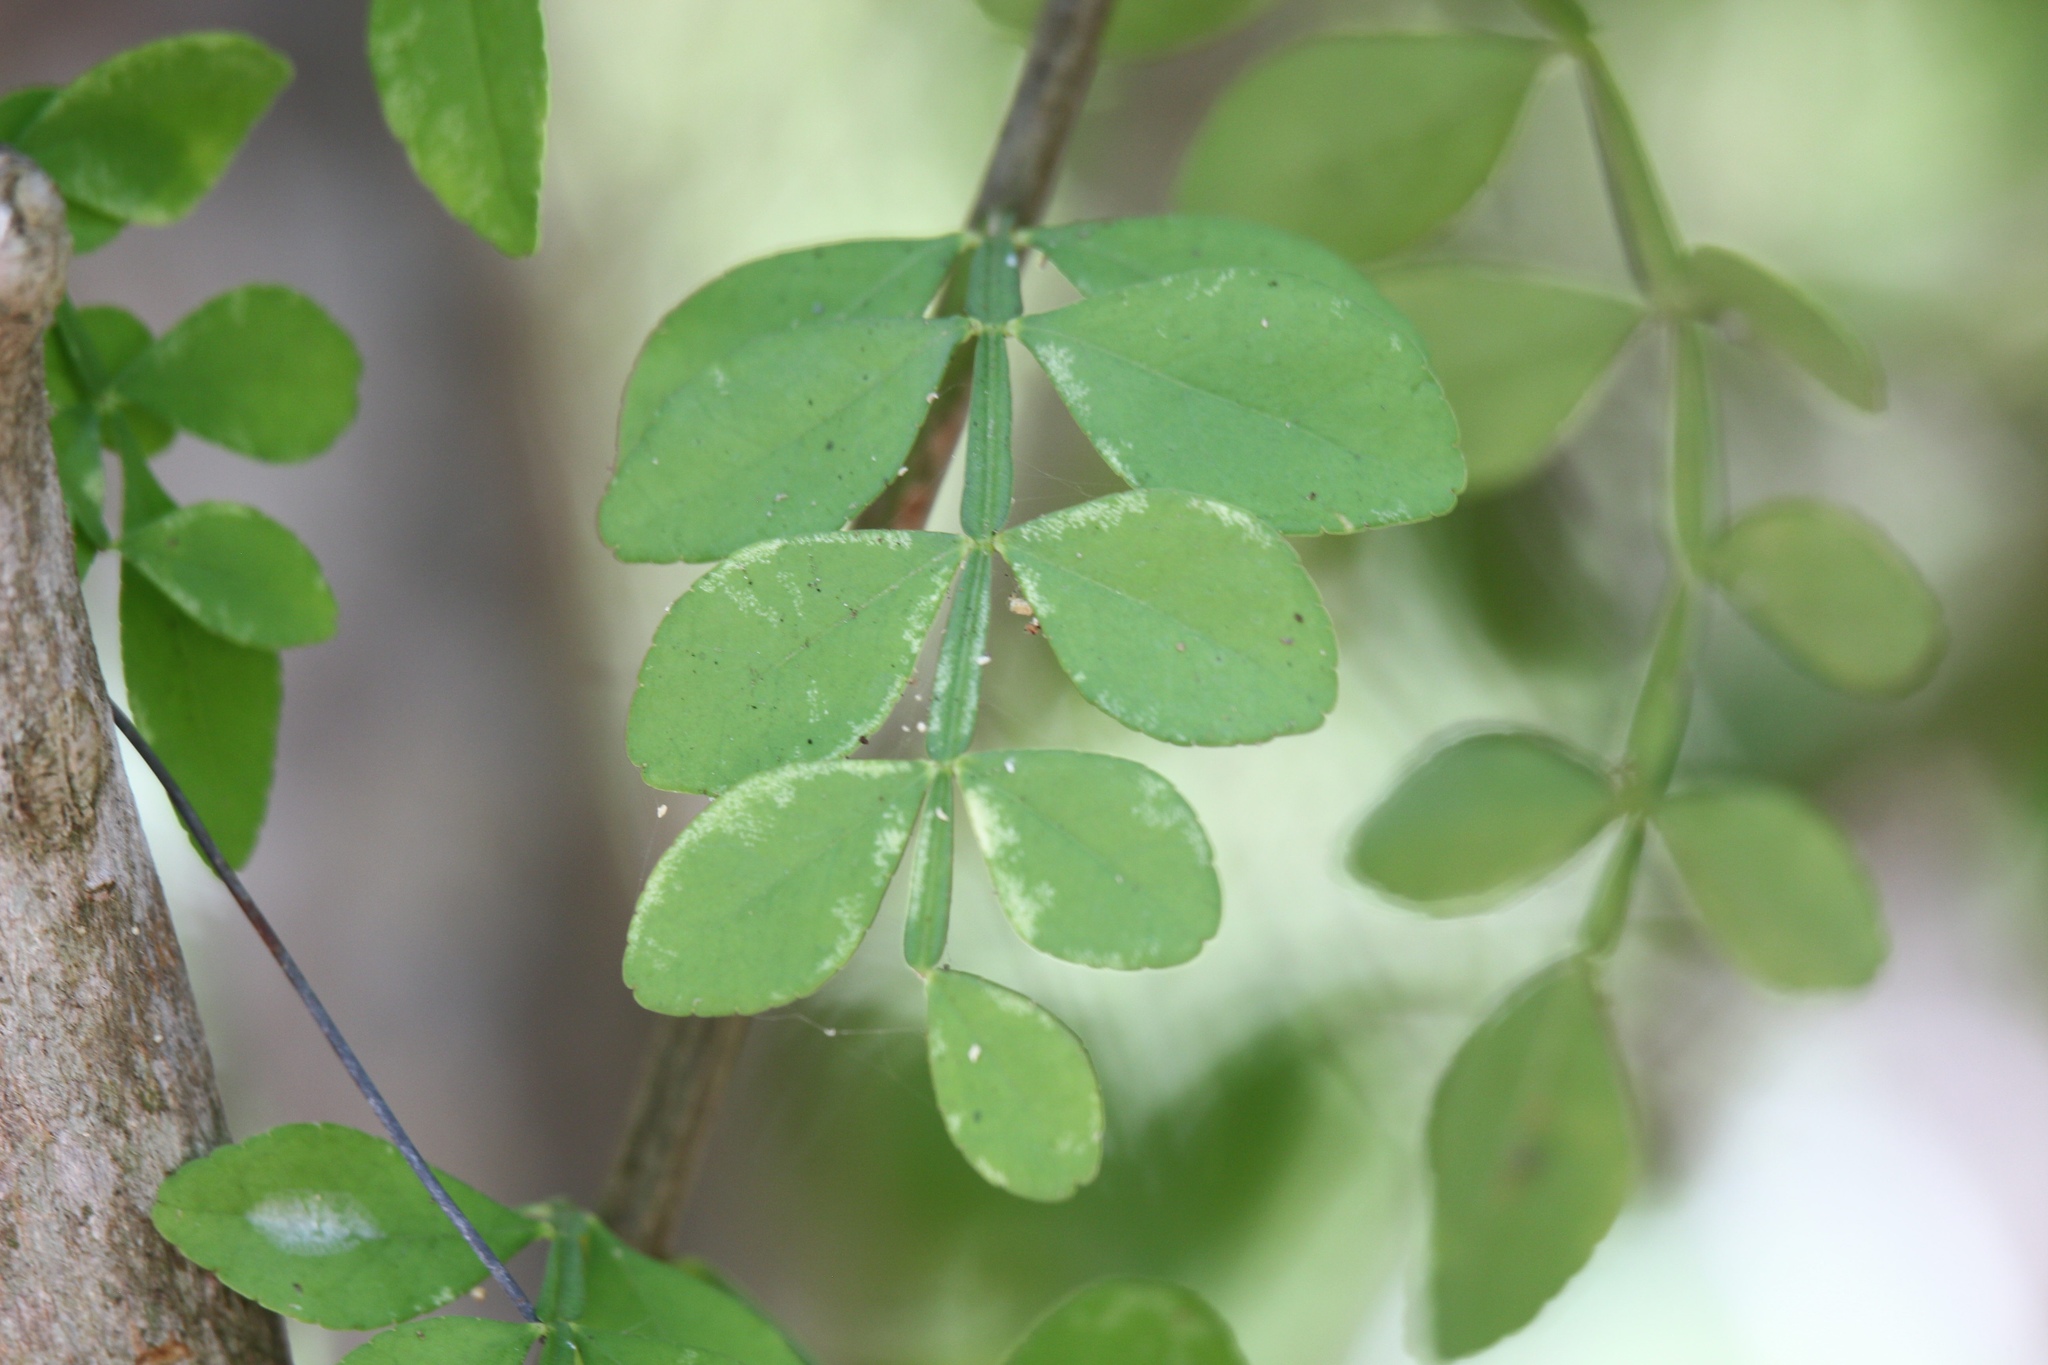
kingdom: Plantae
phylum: Tracheophyta
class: Magnoliopsida
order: Sapindales
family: Rutaceae
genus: Zanthoxylum
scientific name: Zanthoxylum fagara
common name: Lime prickly-ash
